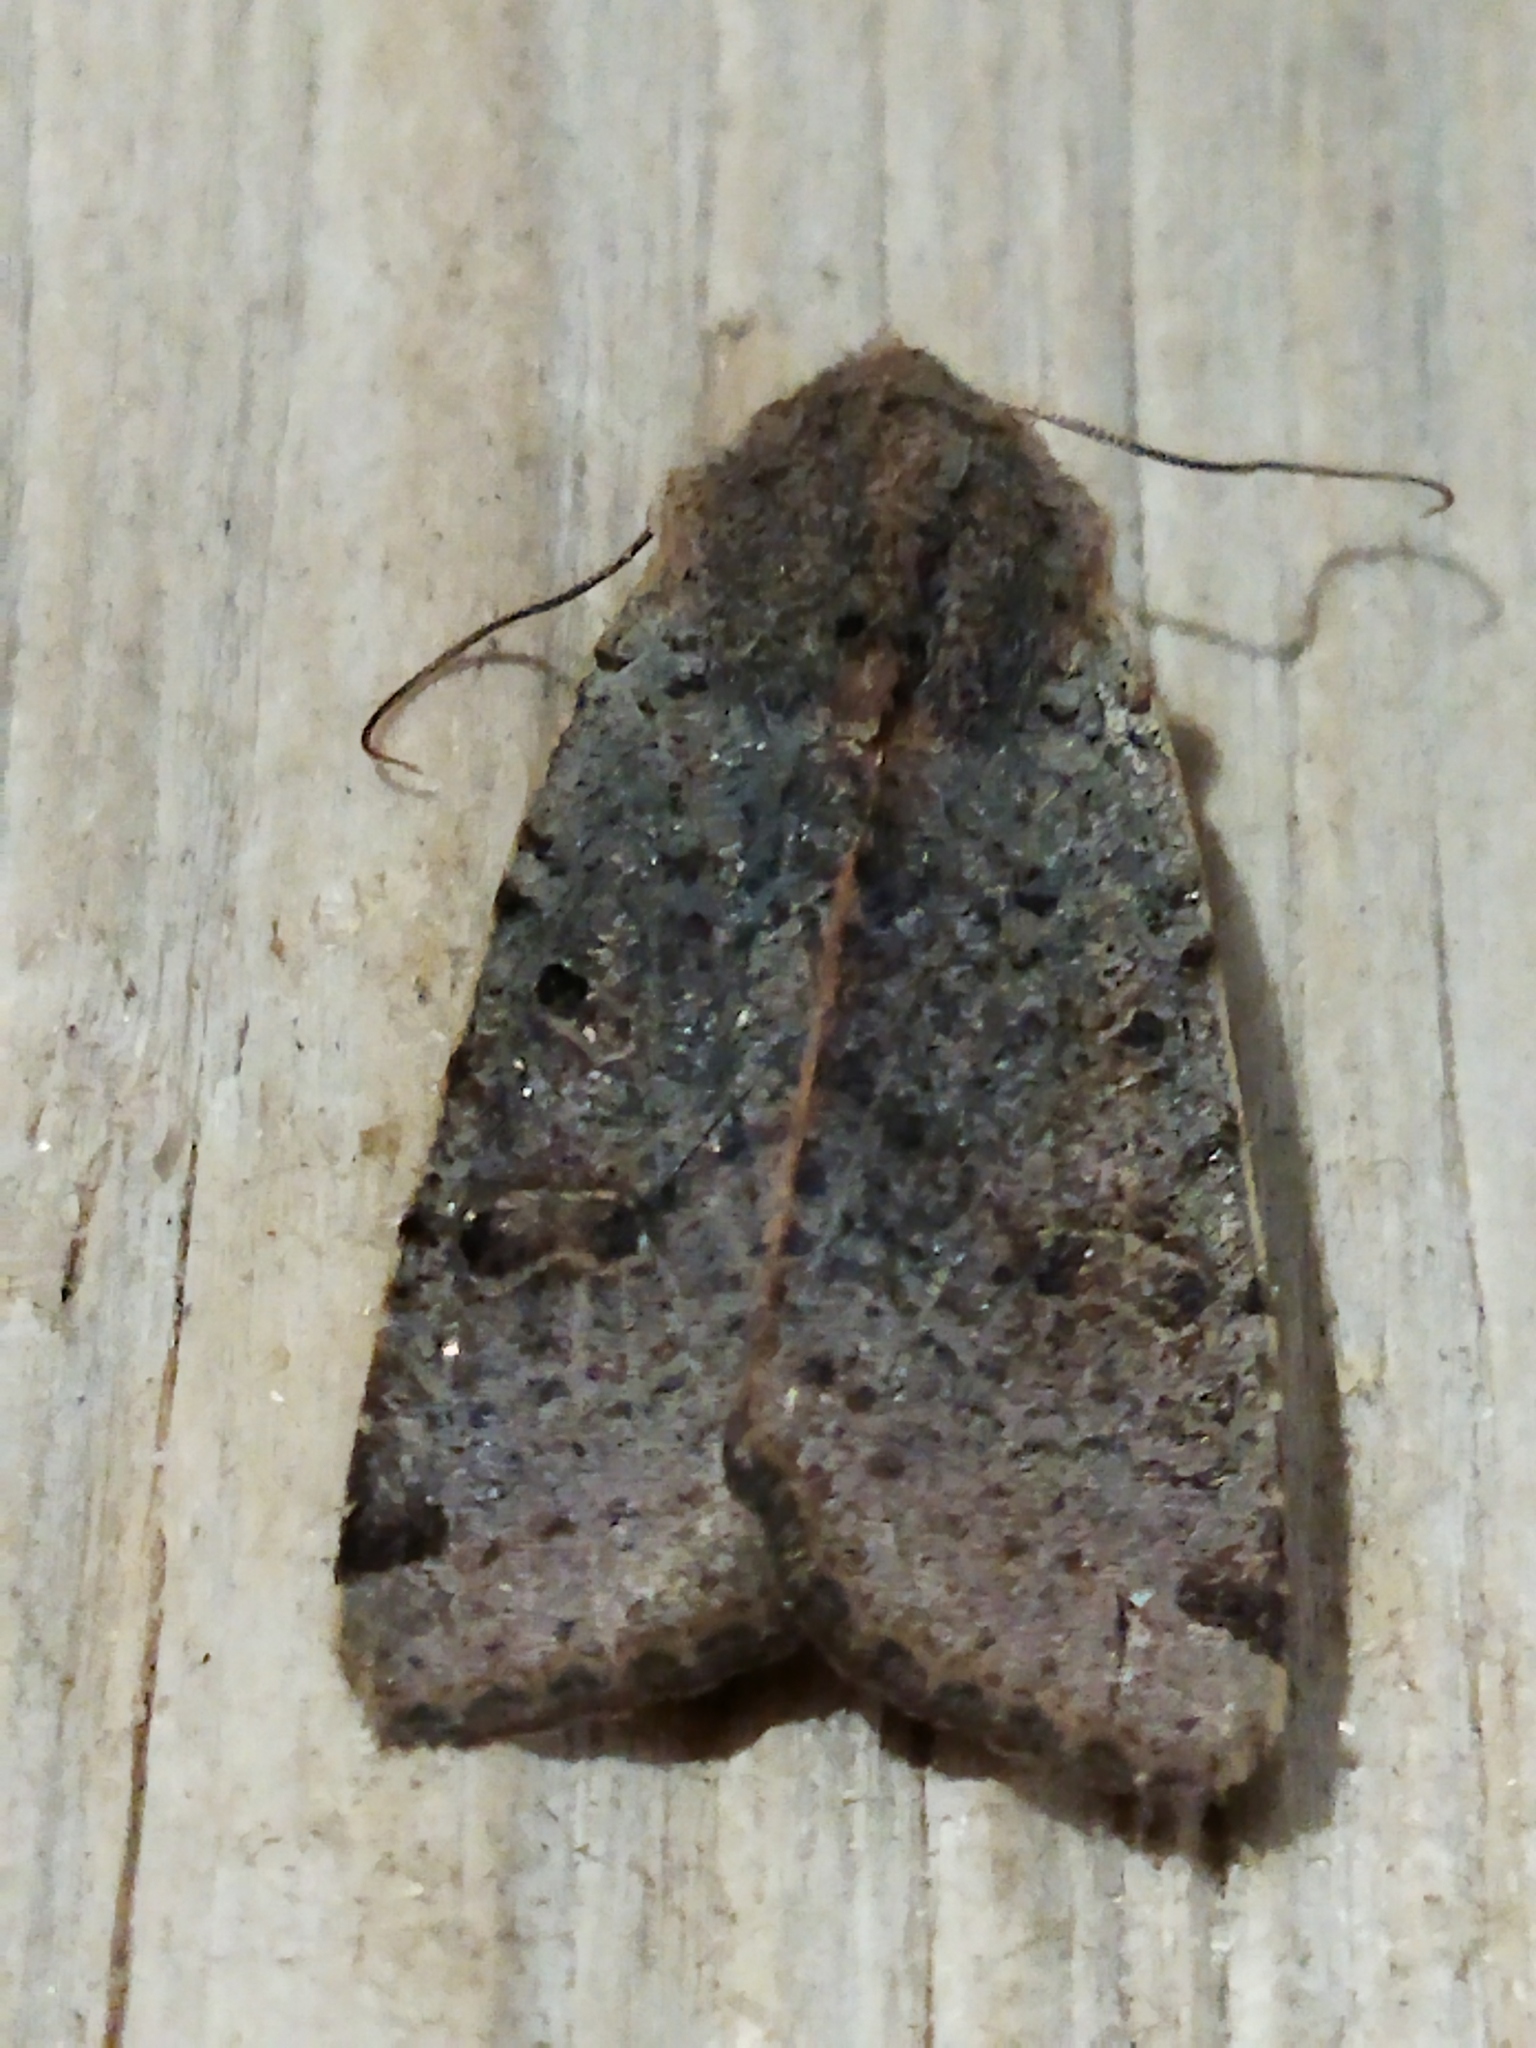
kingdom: Animalia
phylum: Arthropoda
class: Insecta
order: Lepidoptera
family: Noctuidae
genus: Agrochola
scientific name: Agrochola lychnidis
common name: Beaded chestnut
